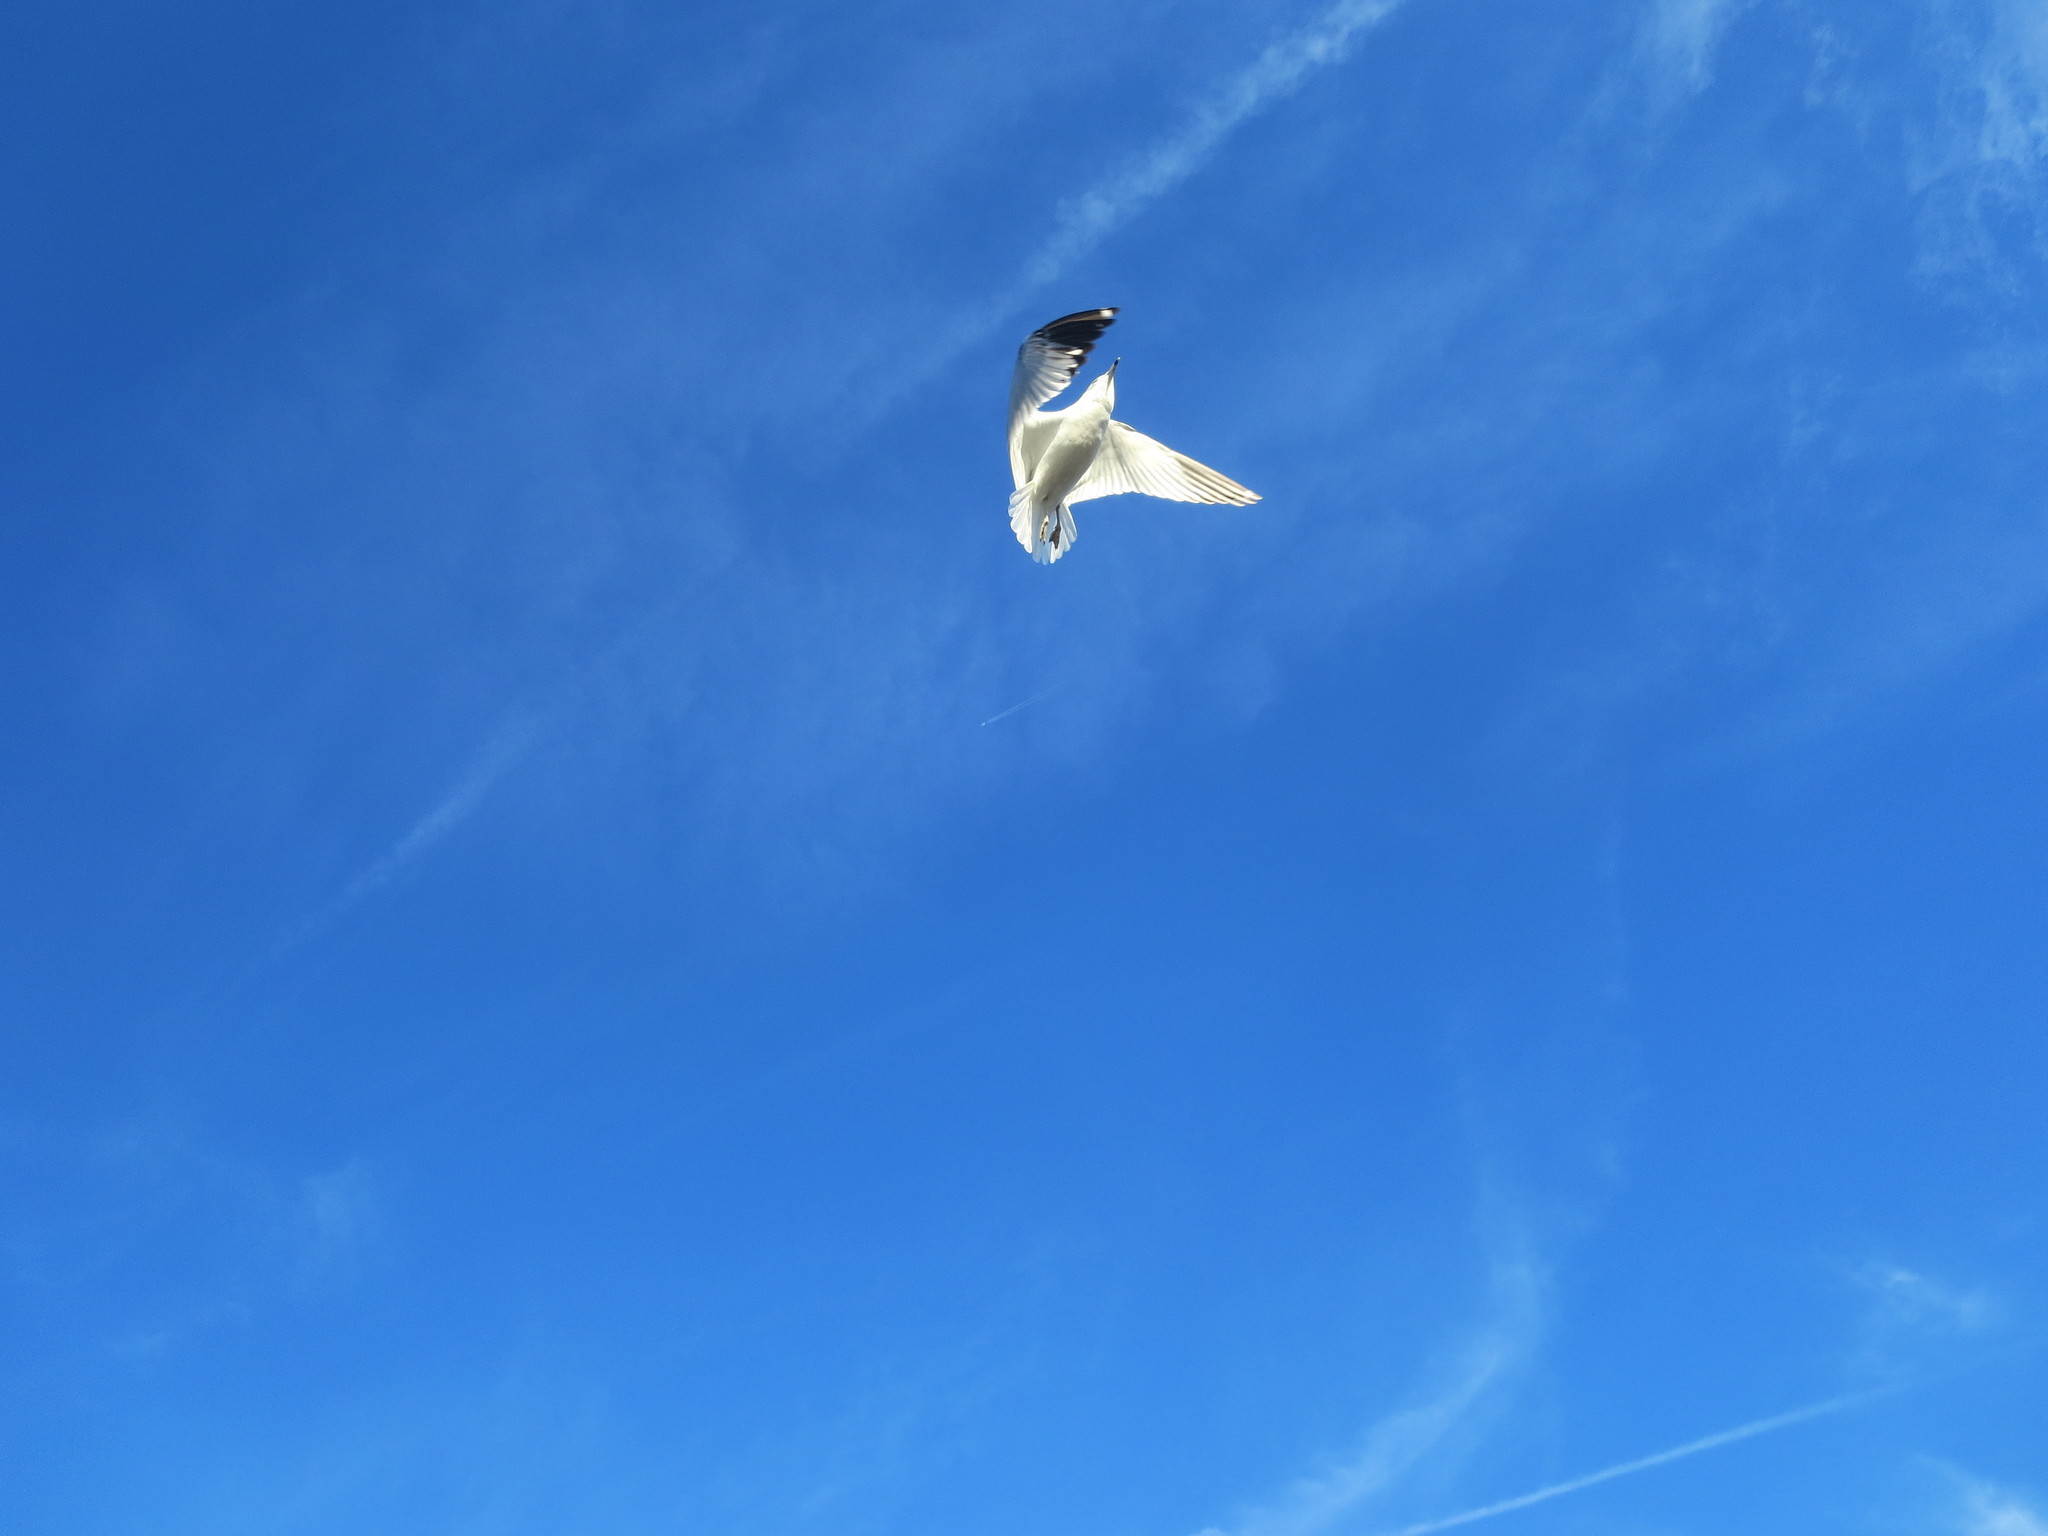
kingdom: Animalia
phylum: Chordata
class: Aves
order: Charadriiformes
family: Laridae
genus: Larus
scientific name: Larus delawarensis
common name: Ring-billed gull
